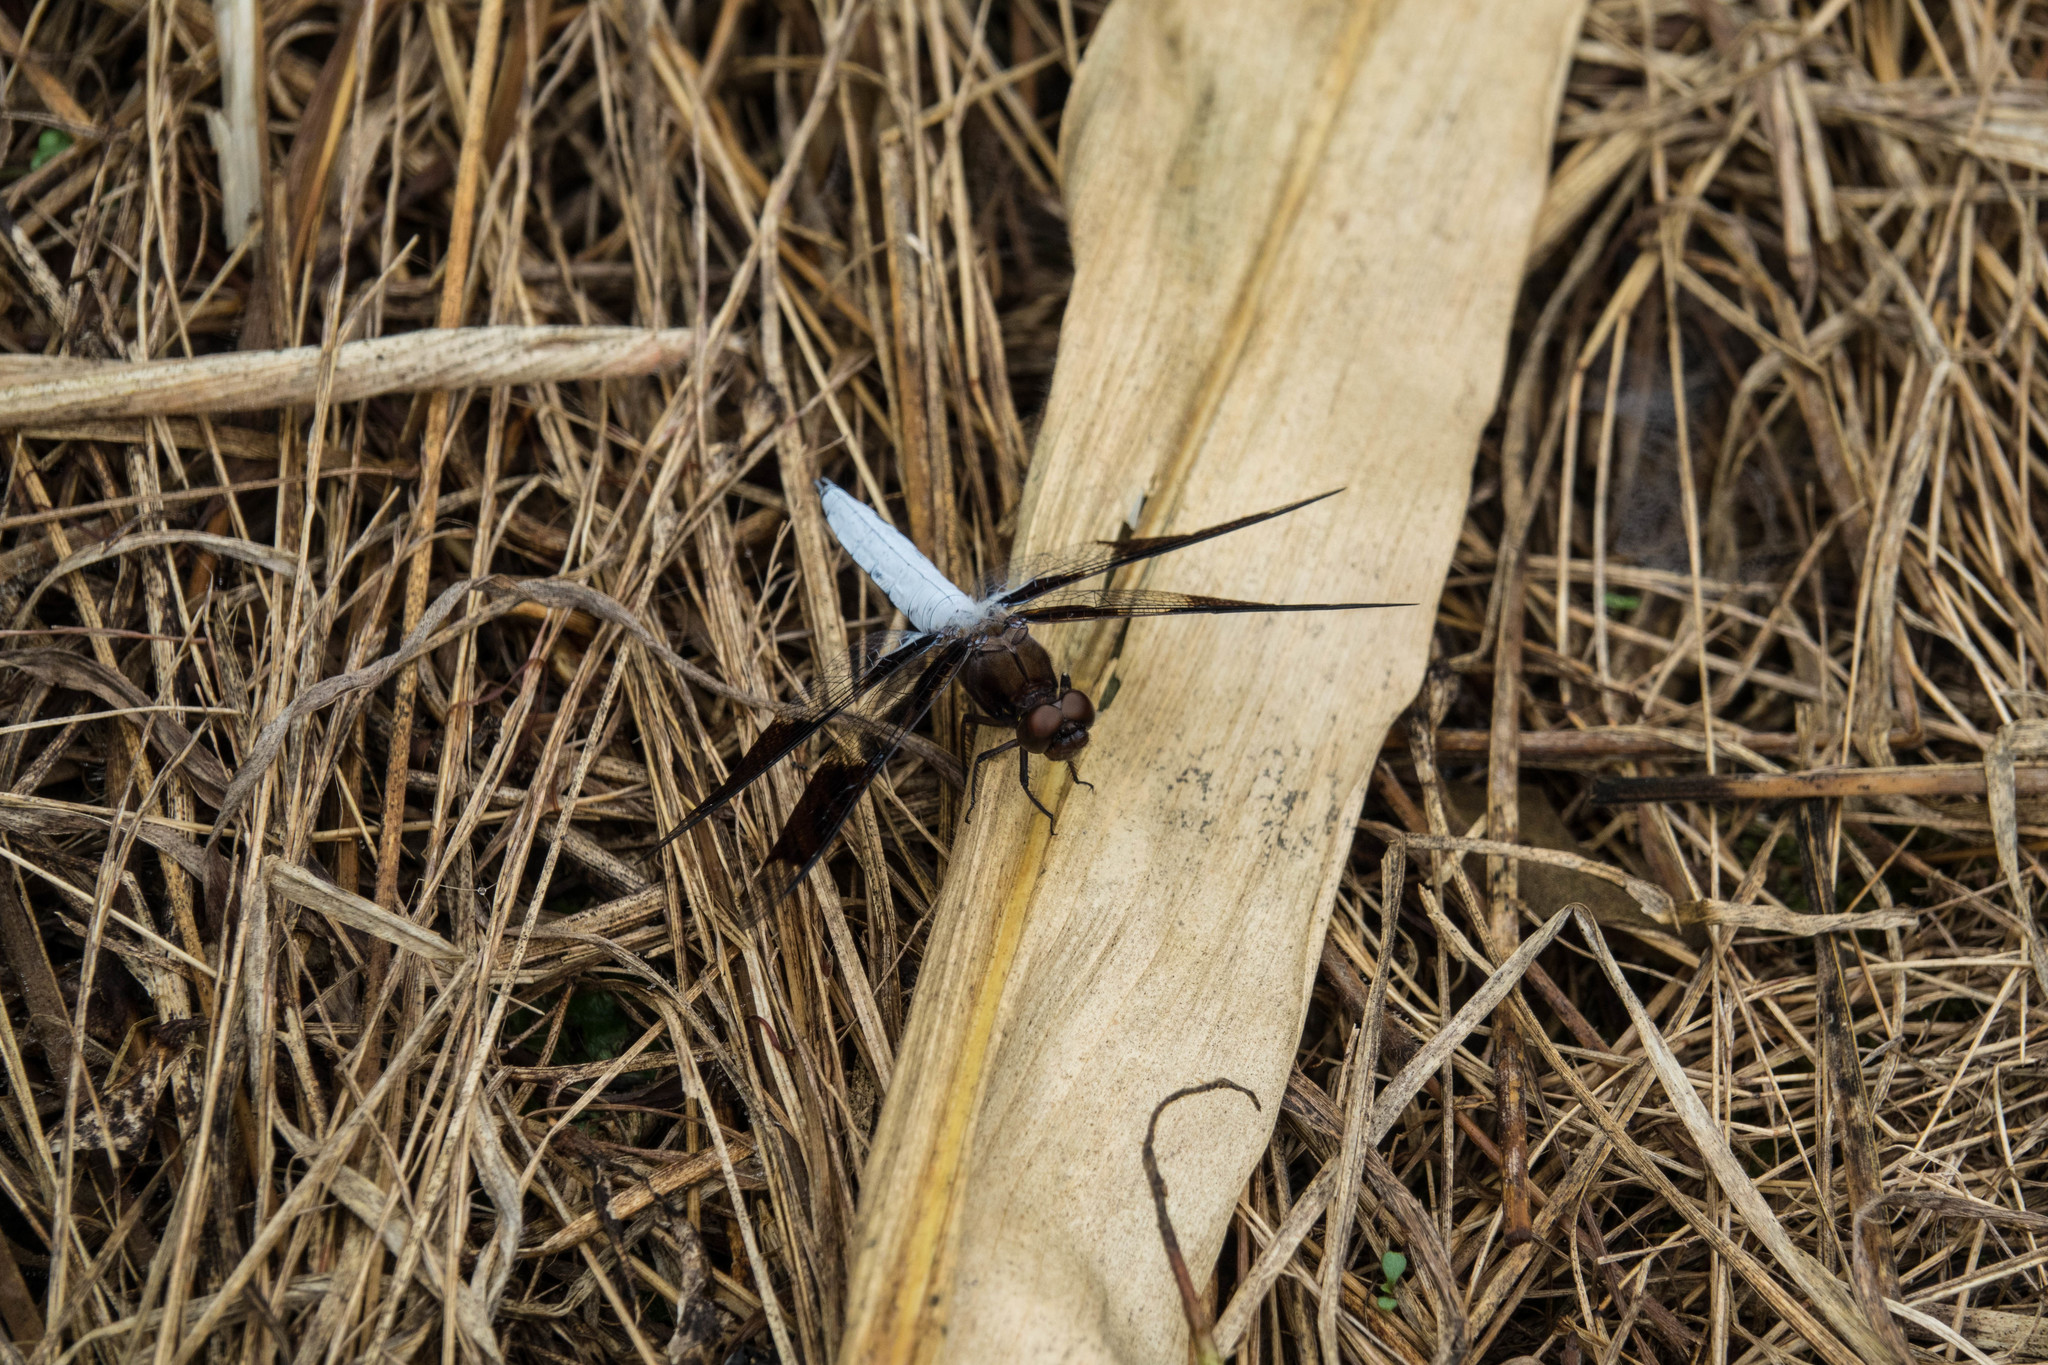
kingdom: Animalia
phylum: Arthropoda
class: Insecta
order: Odonata
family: Libellulidae
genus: Plathemis
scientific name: Plathemis lydia
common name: Common whitetail
